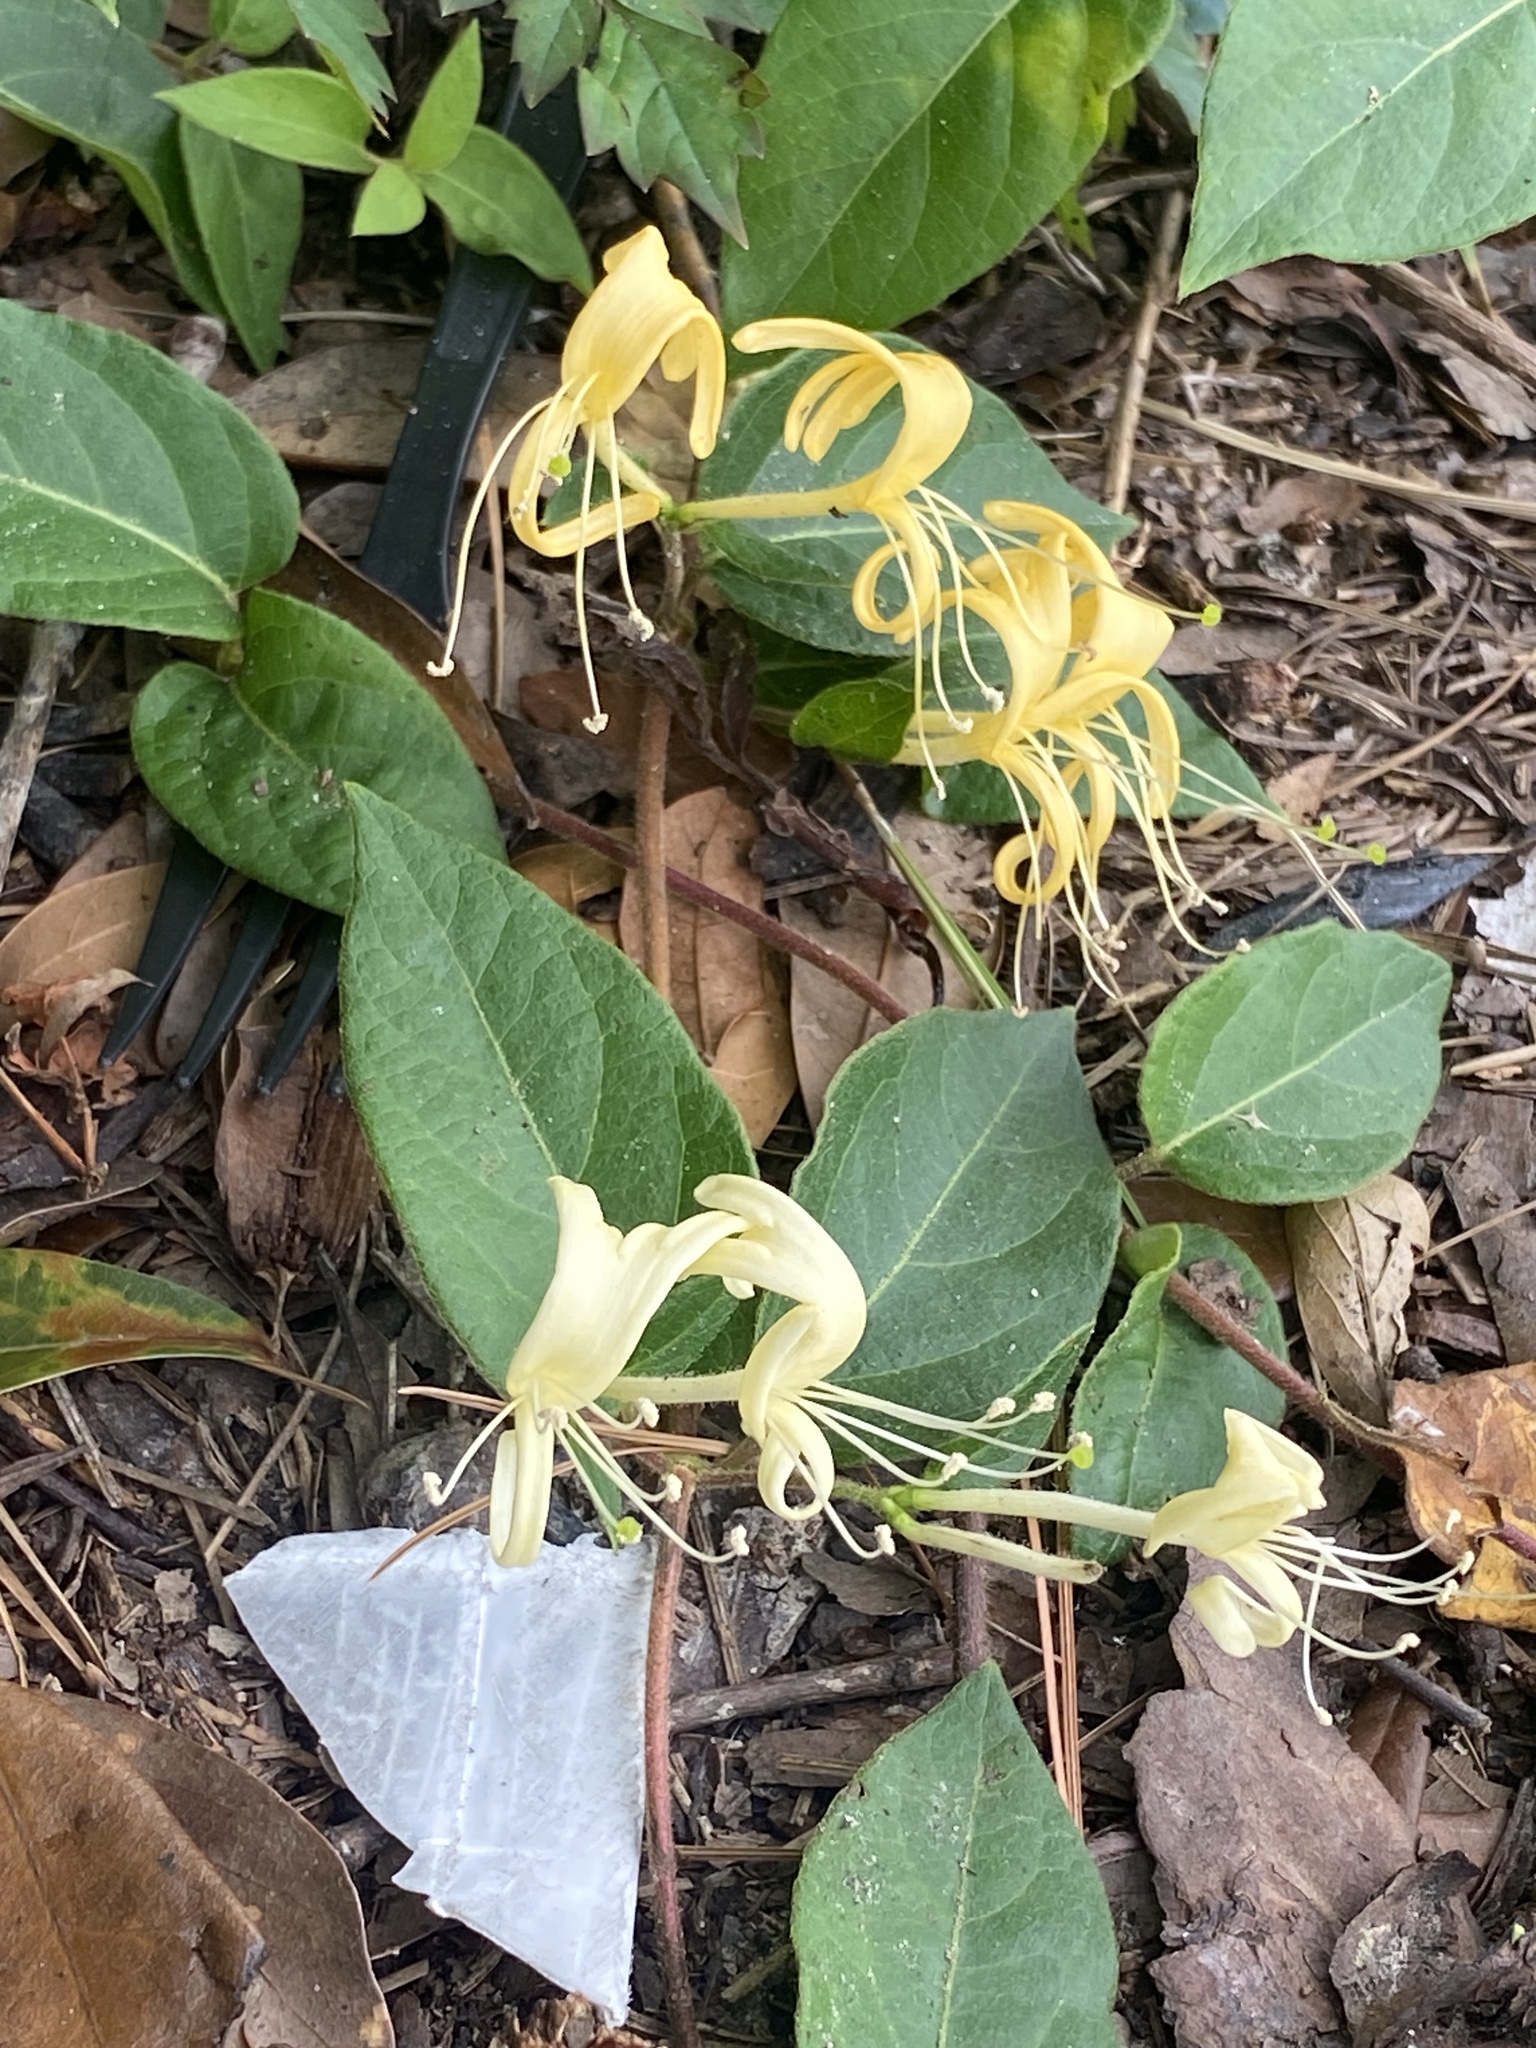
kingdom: Plantae
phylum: Tracheophyta
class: Magnoliopsida
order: Dipsacales
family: Caprifoliaceae
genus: Lonicera
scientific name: Lonicera japonica
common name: Japanese honeysuckle
